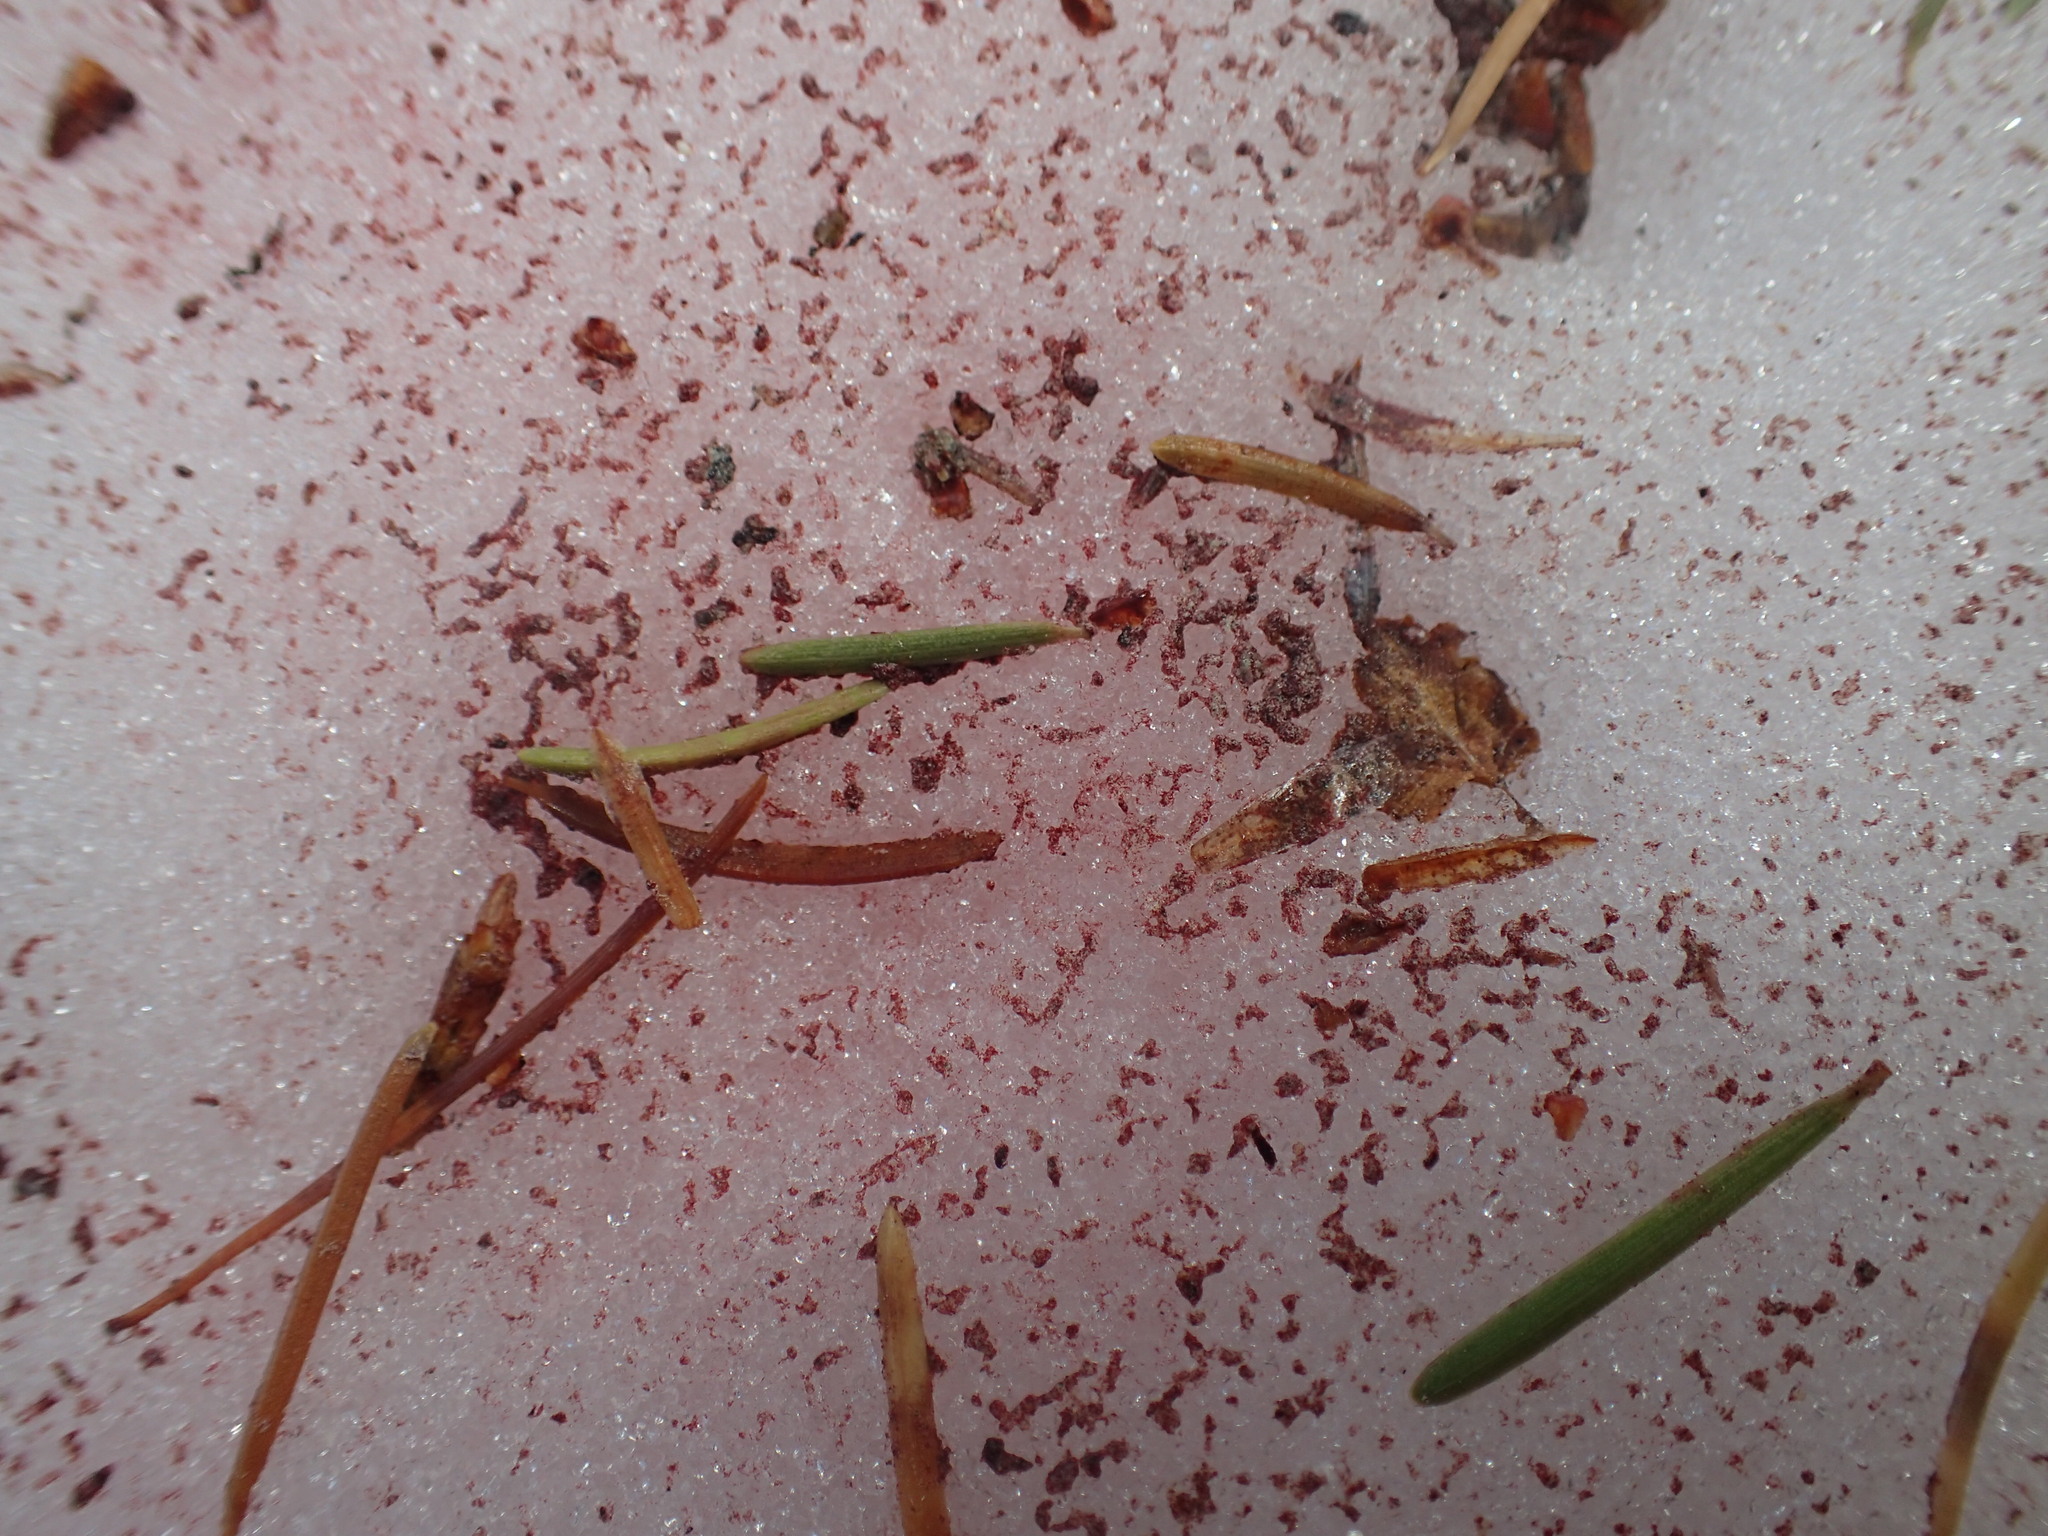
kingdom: Plantae
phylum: Chlorophyta
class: Chlorophyceae
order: Volvocales
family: Chlamydomonadaceae
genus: Chlamydomonas
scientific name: Chlamydomonas nivalis
